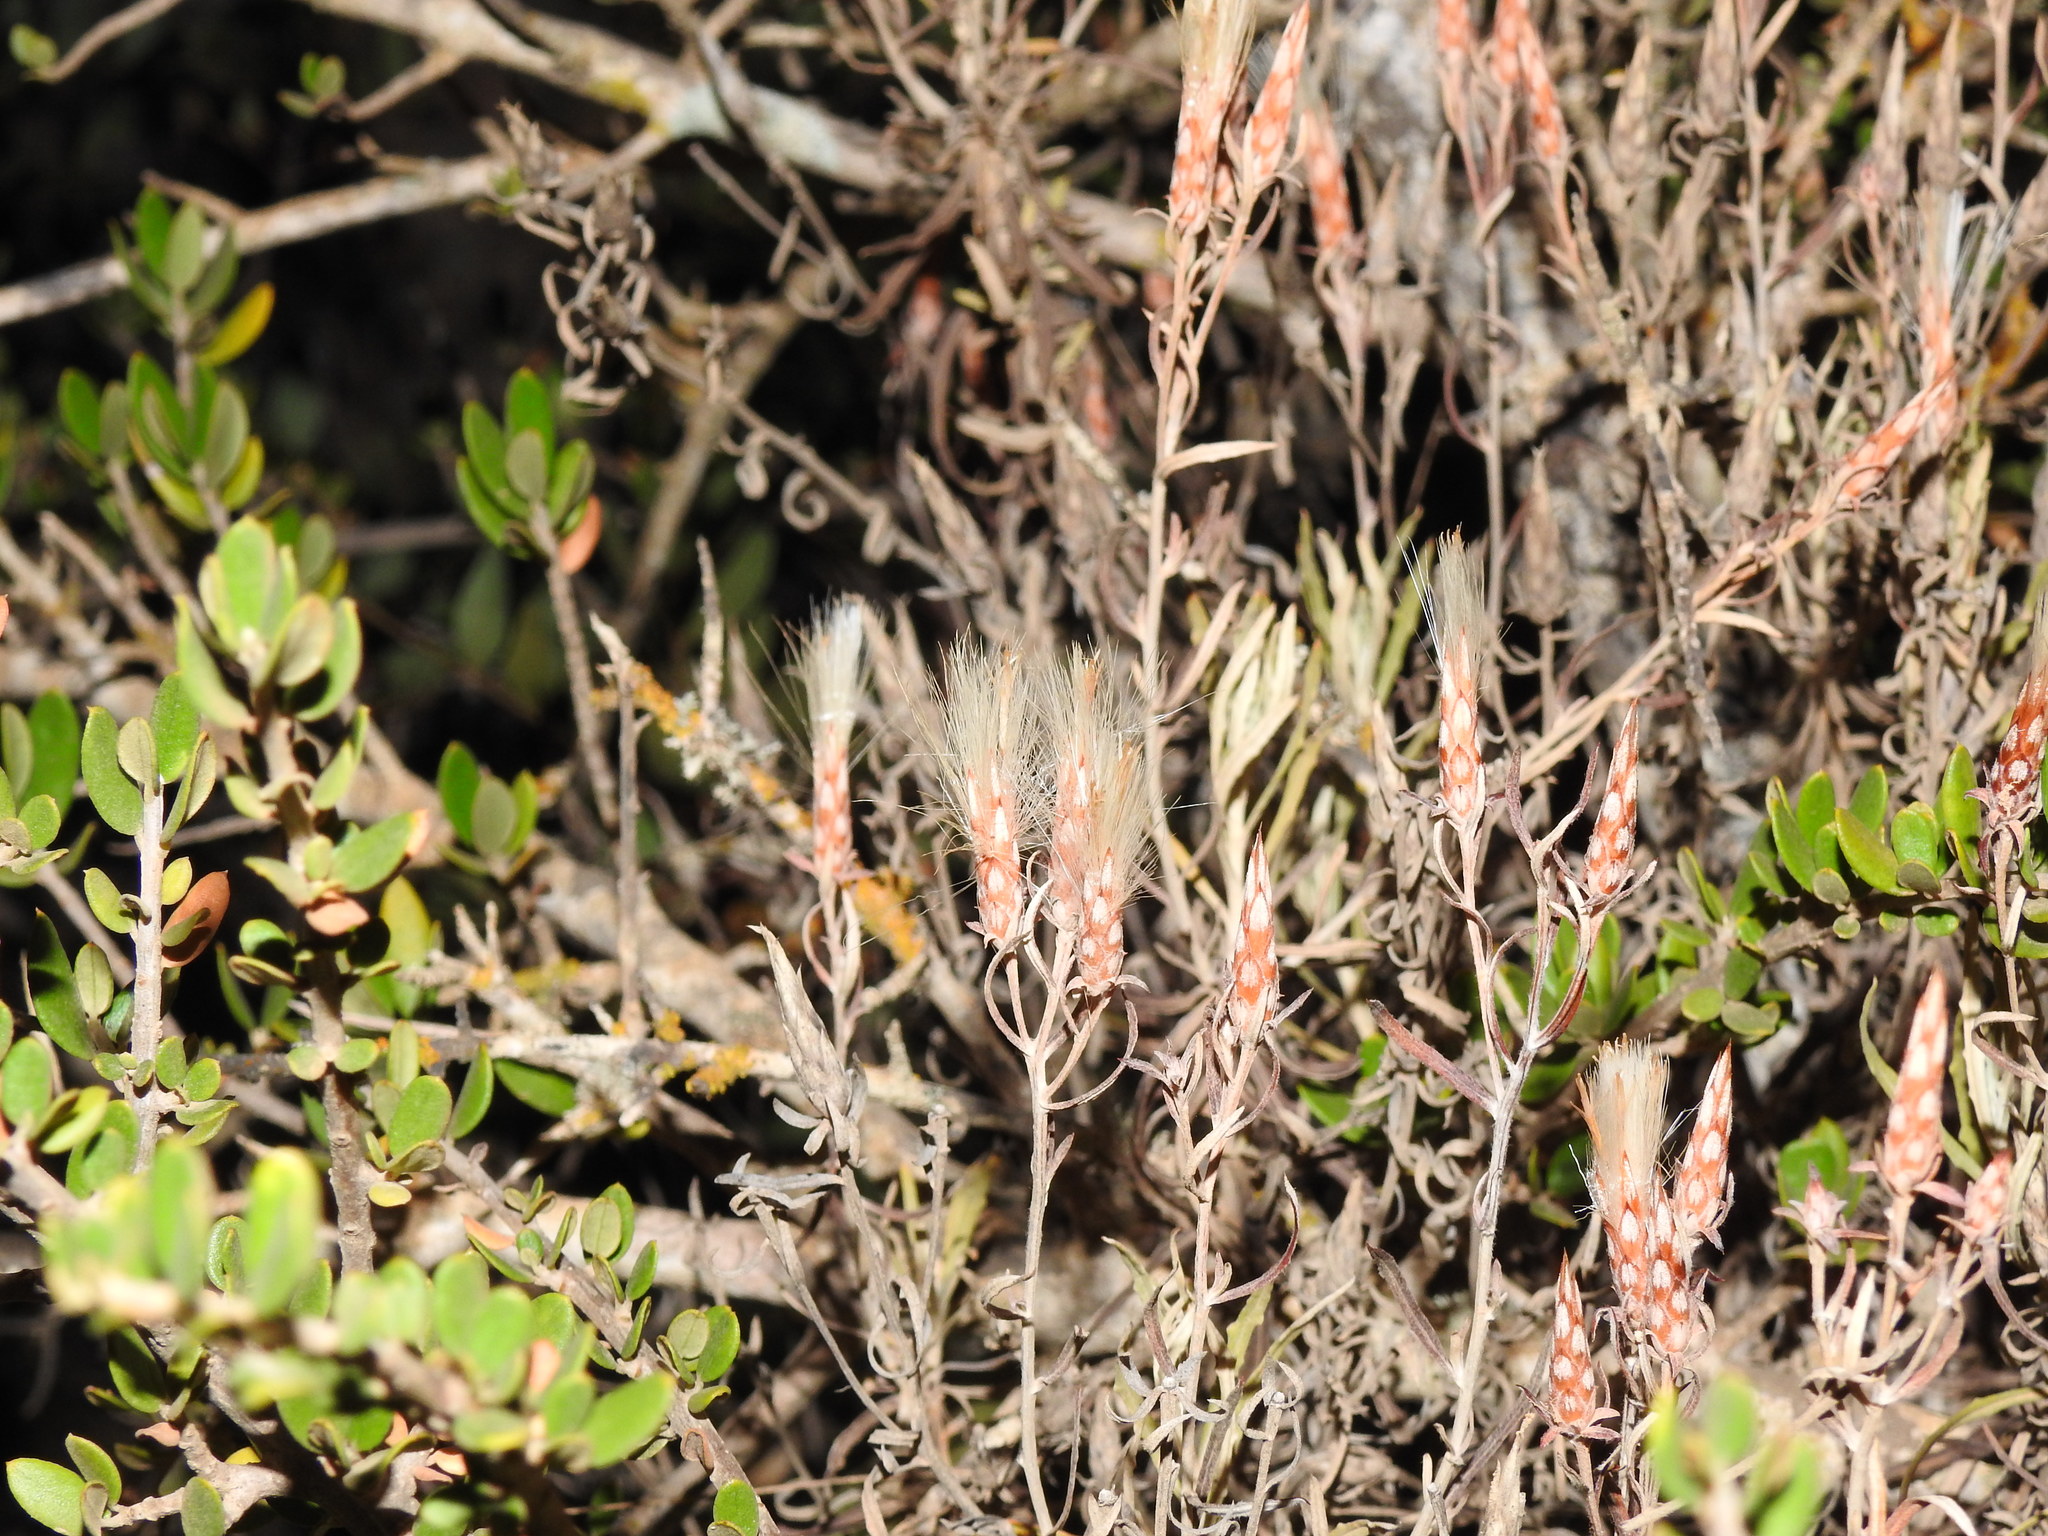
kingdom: Plantae
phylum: Tracheophyta
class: Magnoliopsida
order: Asterales
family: Asteraceae
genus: Staehelina
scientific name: Staehelina dubia
